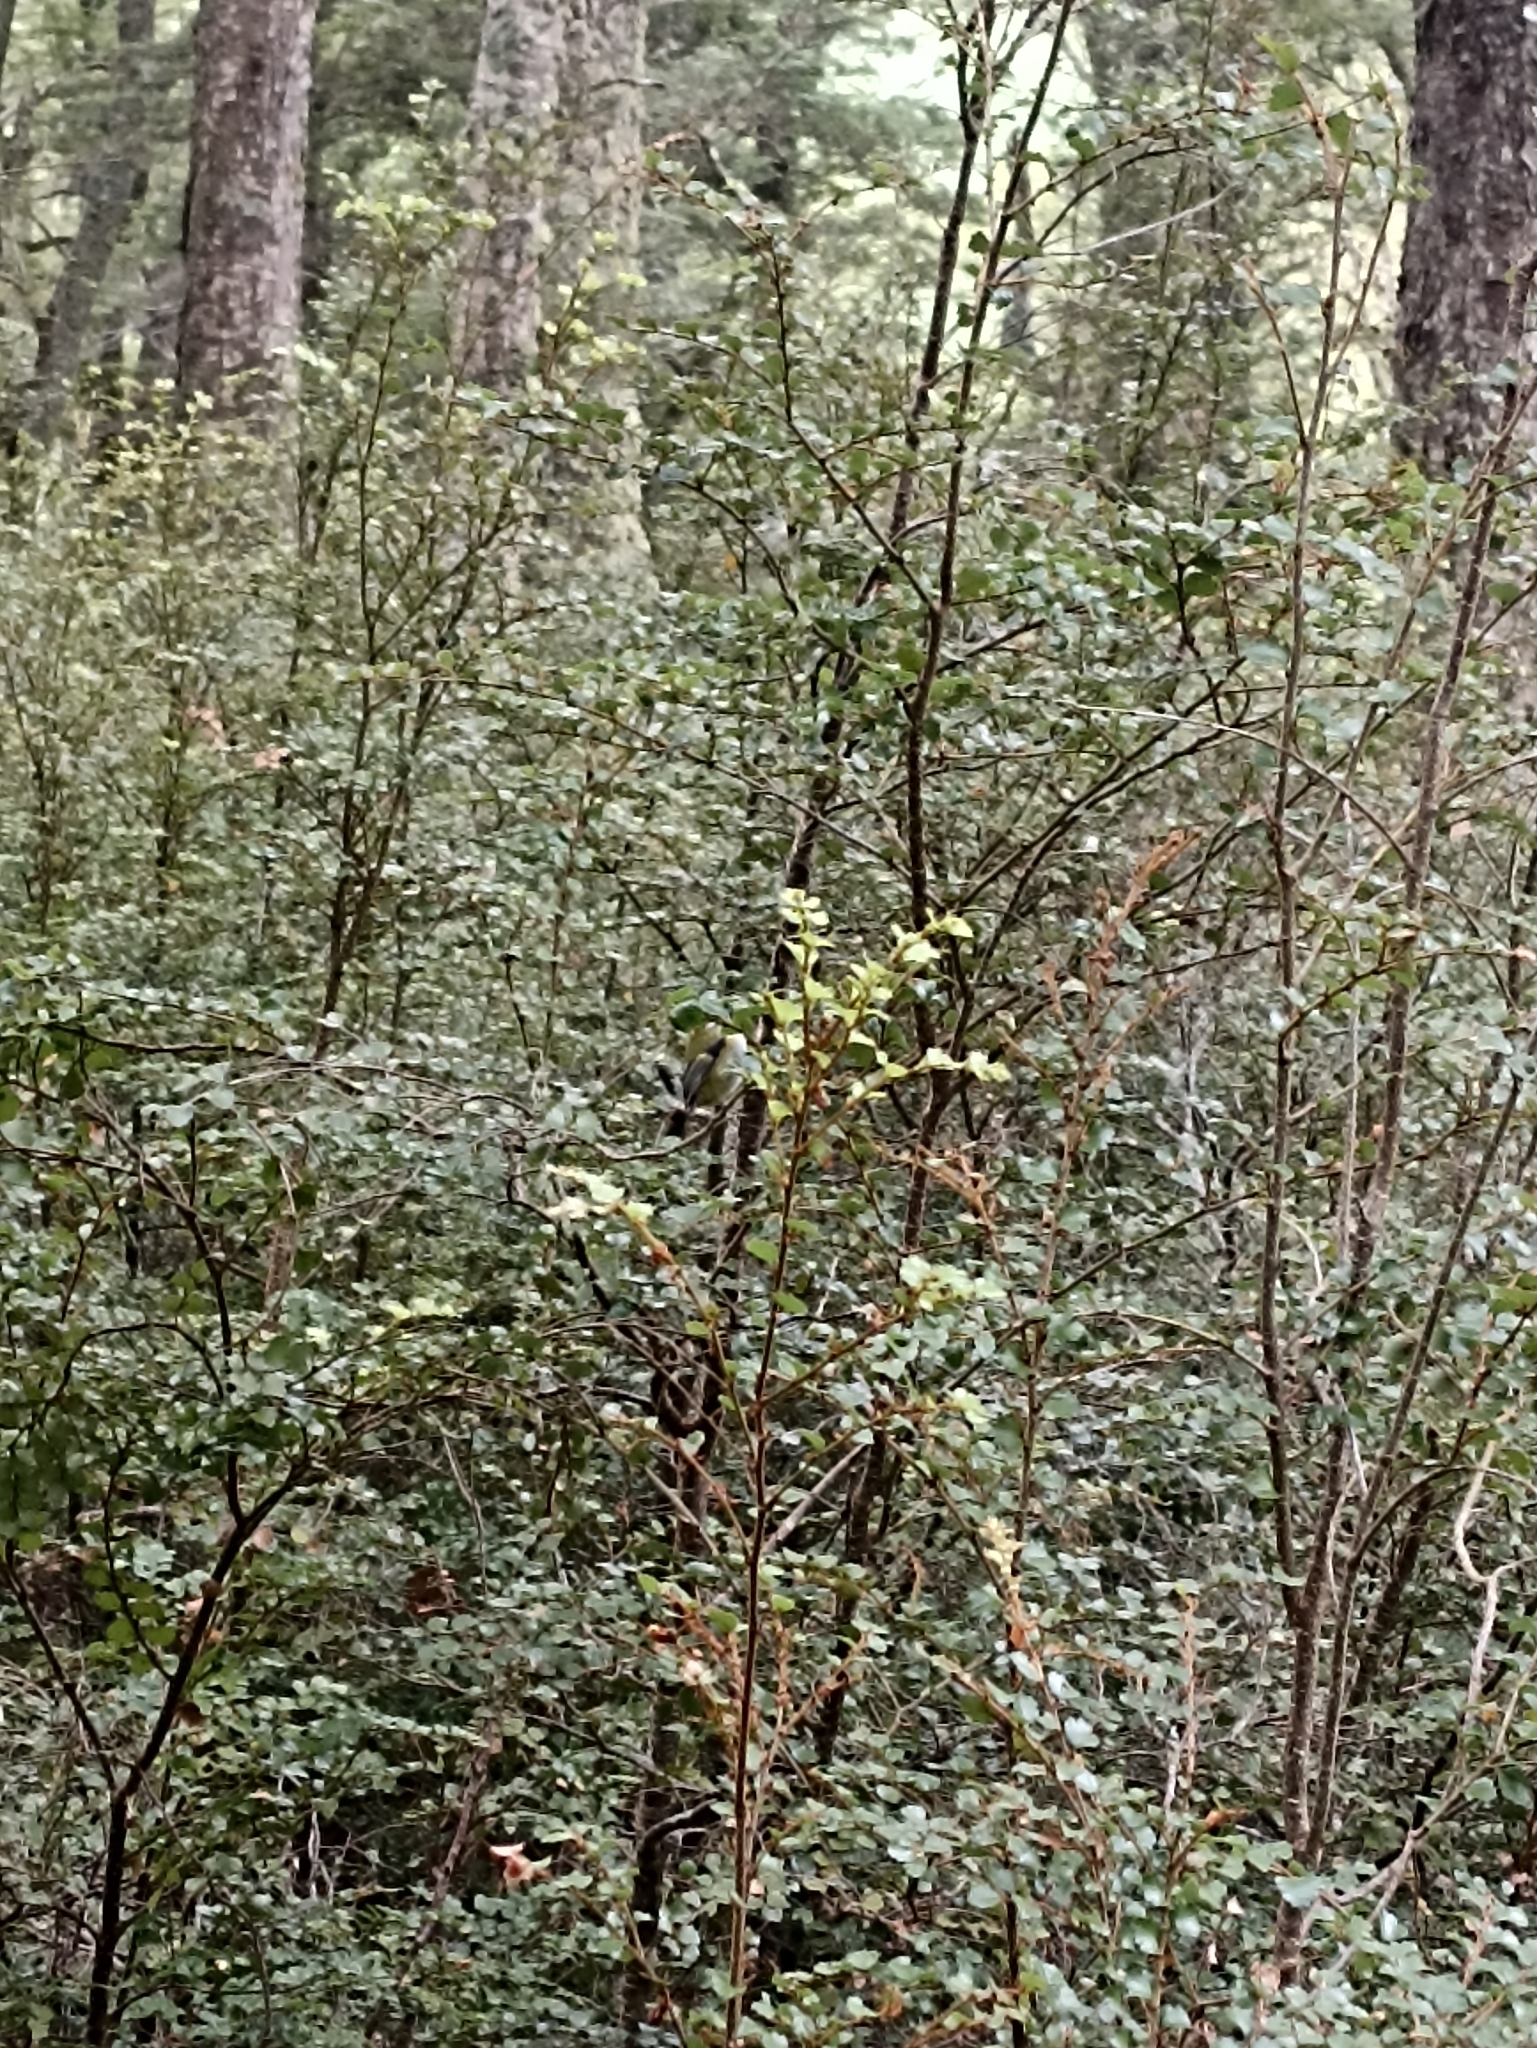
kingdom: Animalia
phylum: Chordata
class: Aves
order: Passeriformes
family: Acanthisittidae
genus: Acanthisitta
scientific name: Acanthisitta chloris
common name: Rifleman
